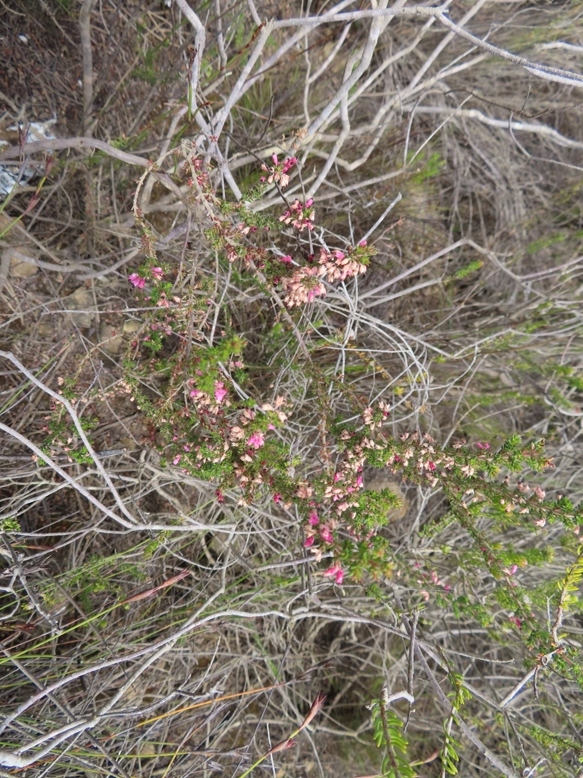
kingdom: Plantae
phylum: Tracheophyta
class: Magnoliopsida
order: Ericales
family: Ericaceae
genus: Erica
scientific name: Erica placentiflora
